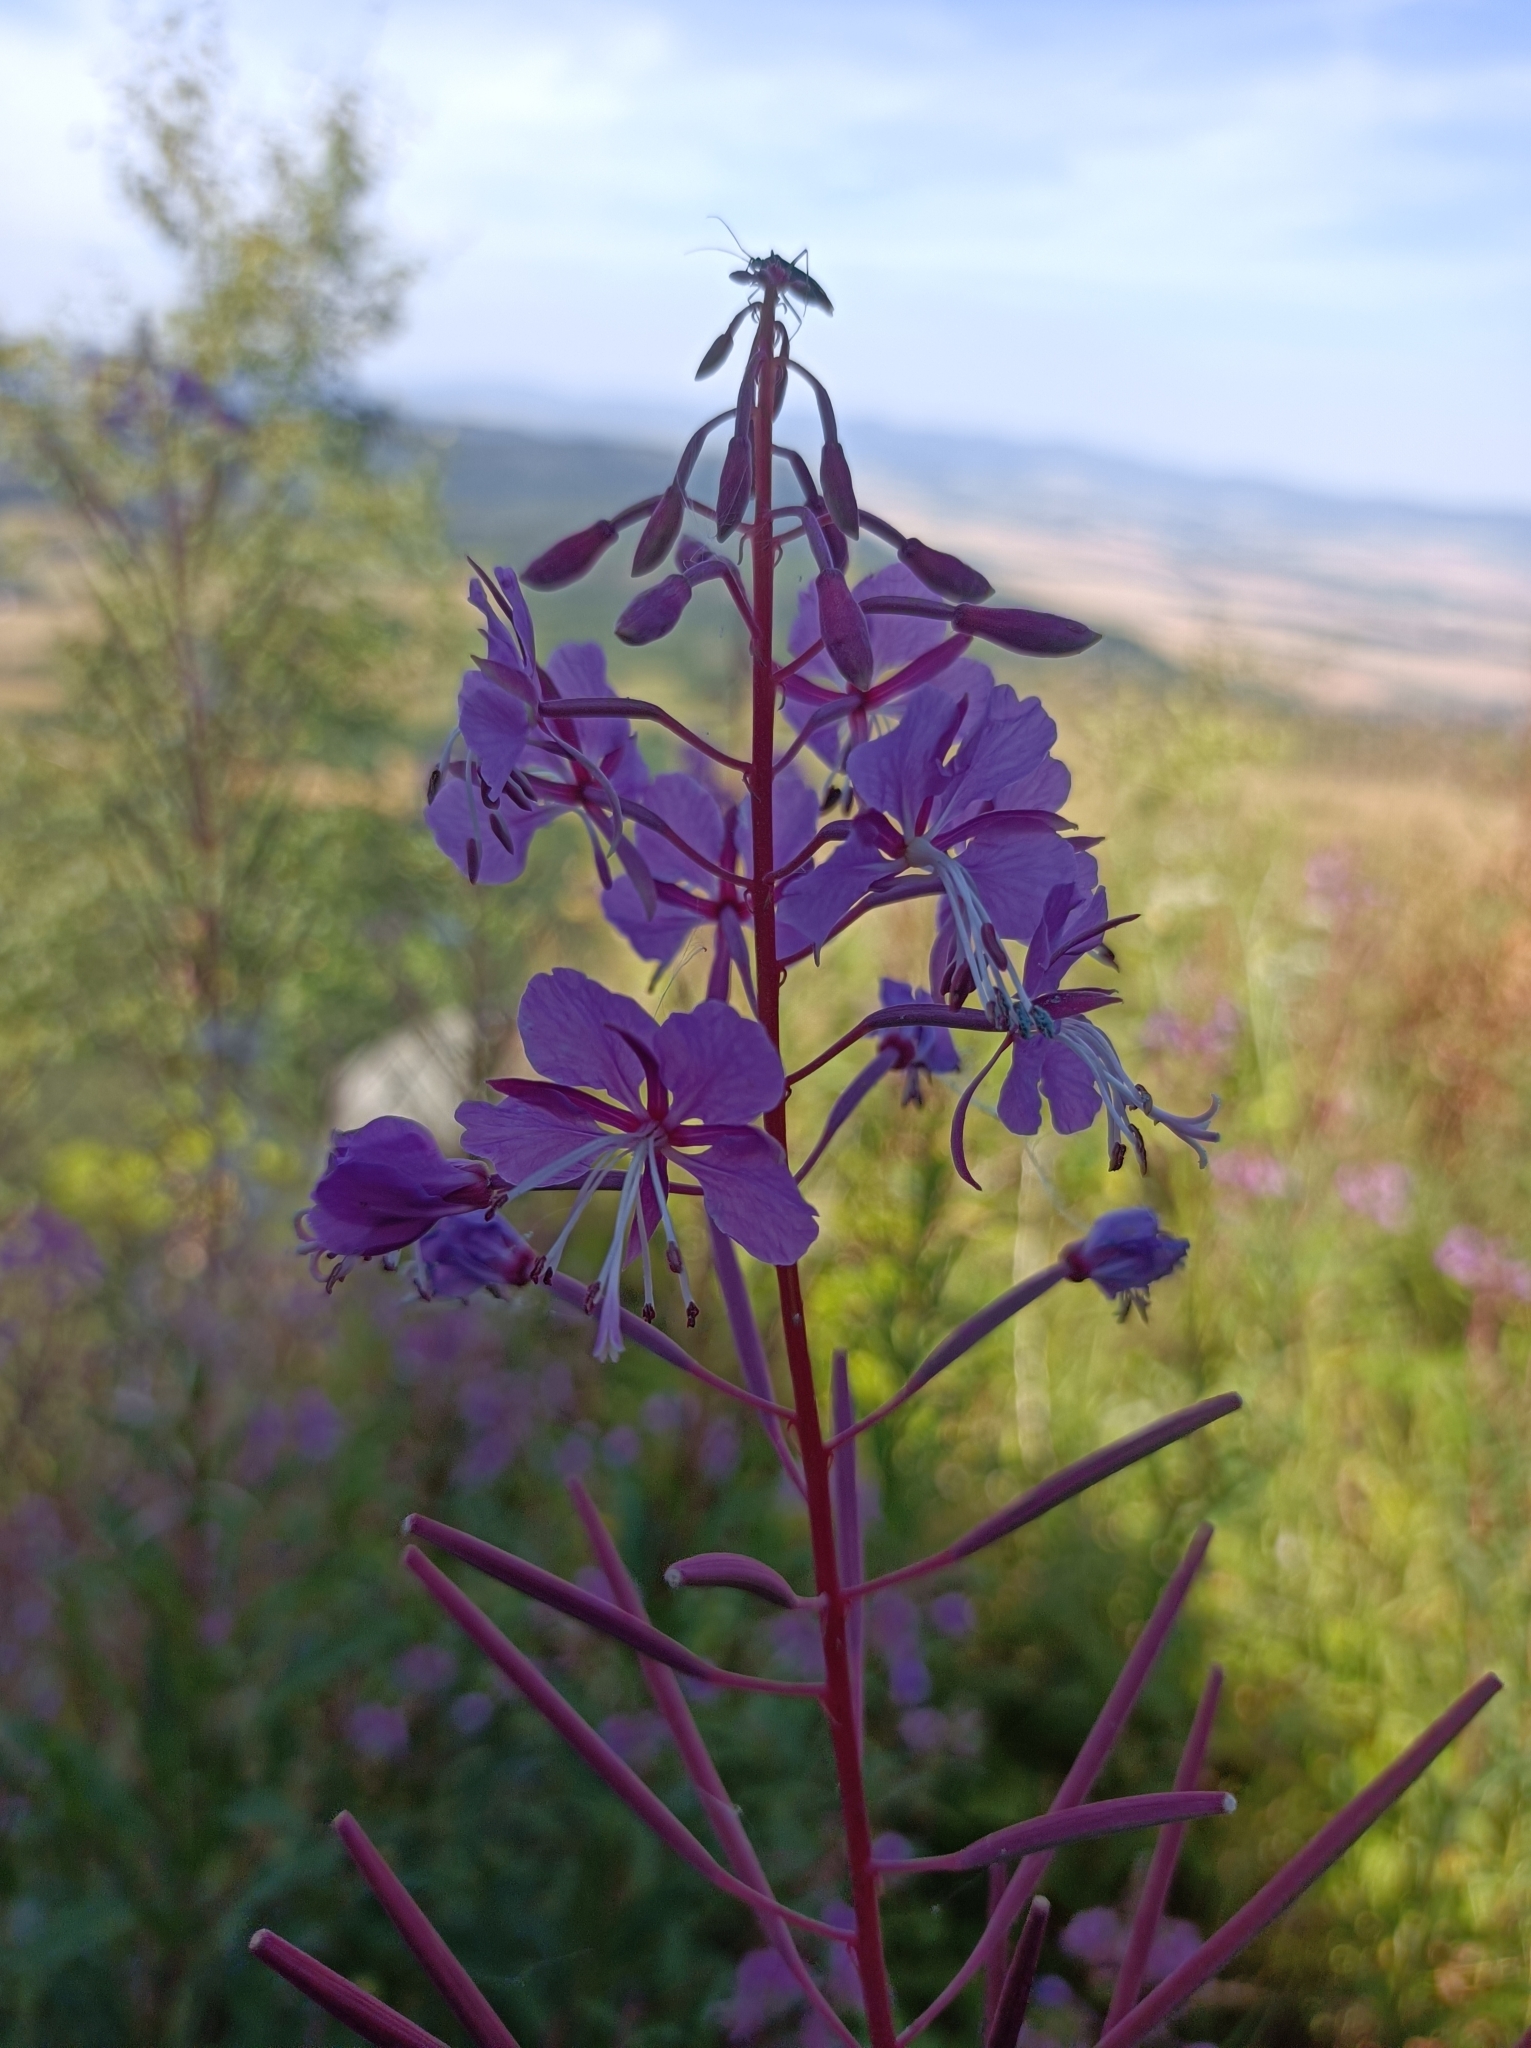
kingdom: Plantae
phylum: Tracheophyta
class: Magnoliopsida
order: Myrtales
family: Onagraceae
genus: Chamaenerion
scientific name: Chamaenerion angustifolium
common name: Fireweed
